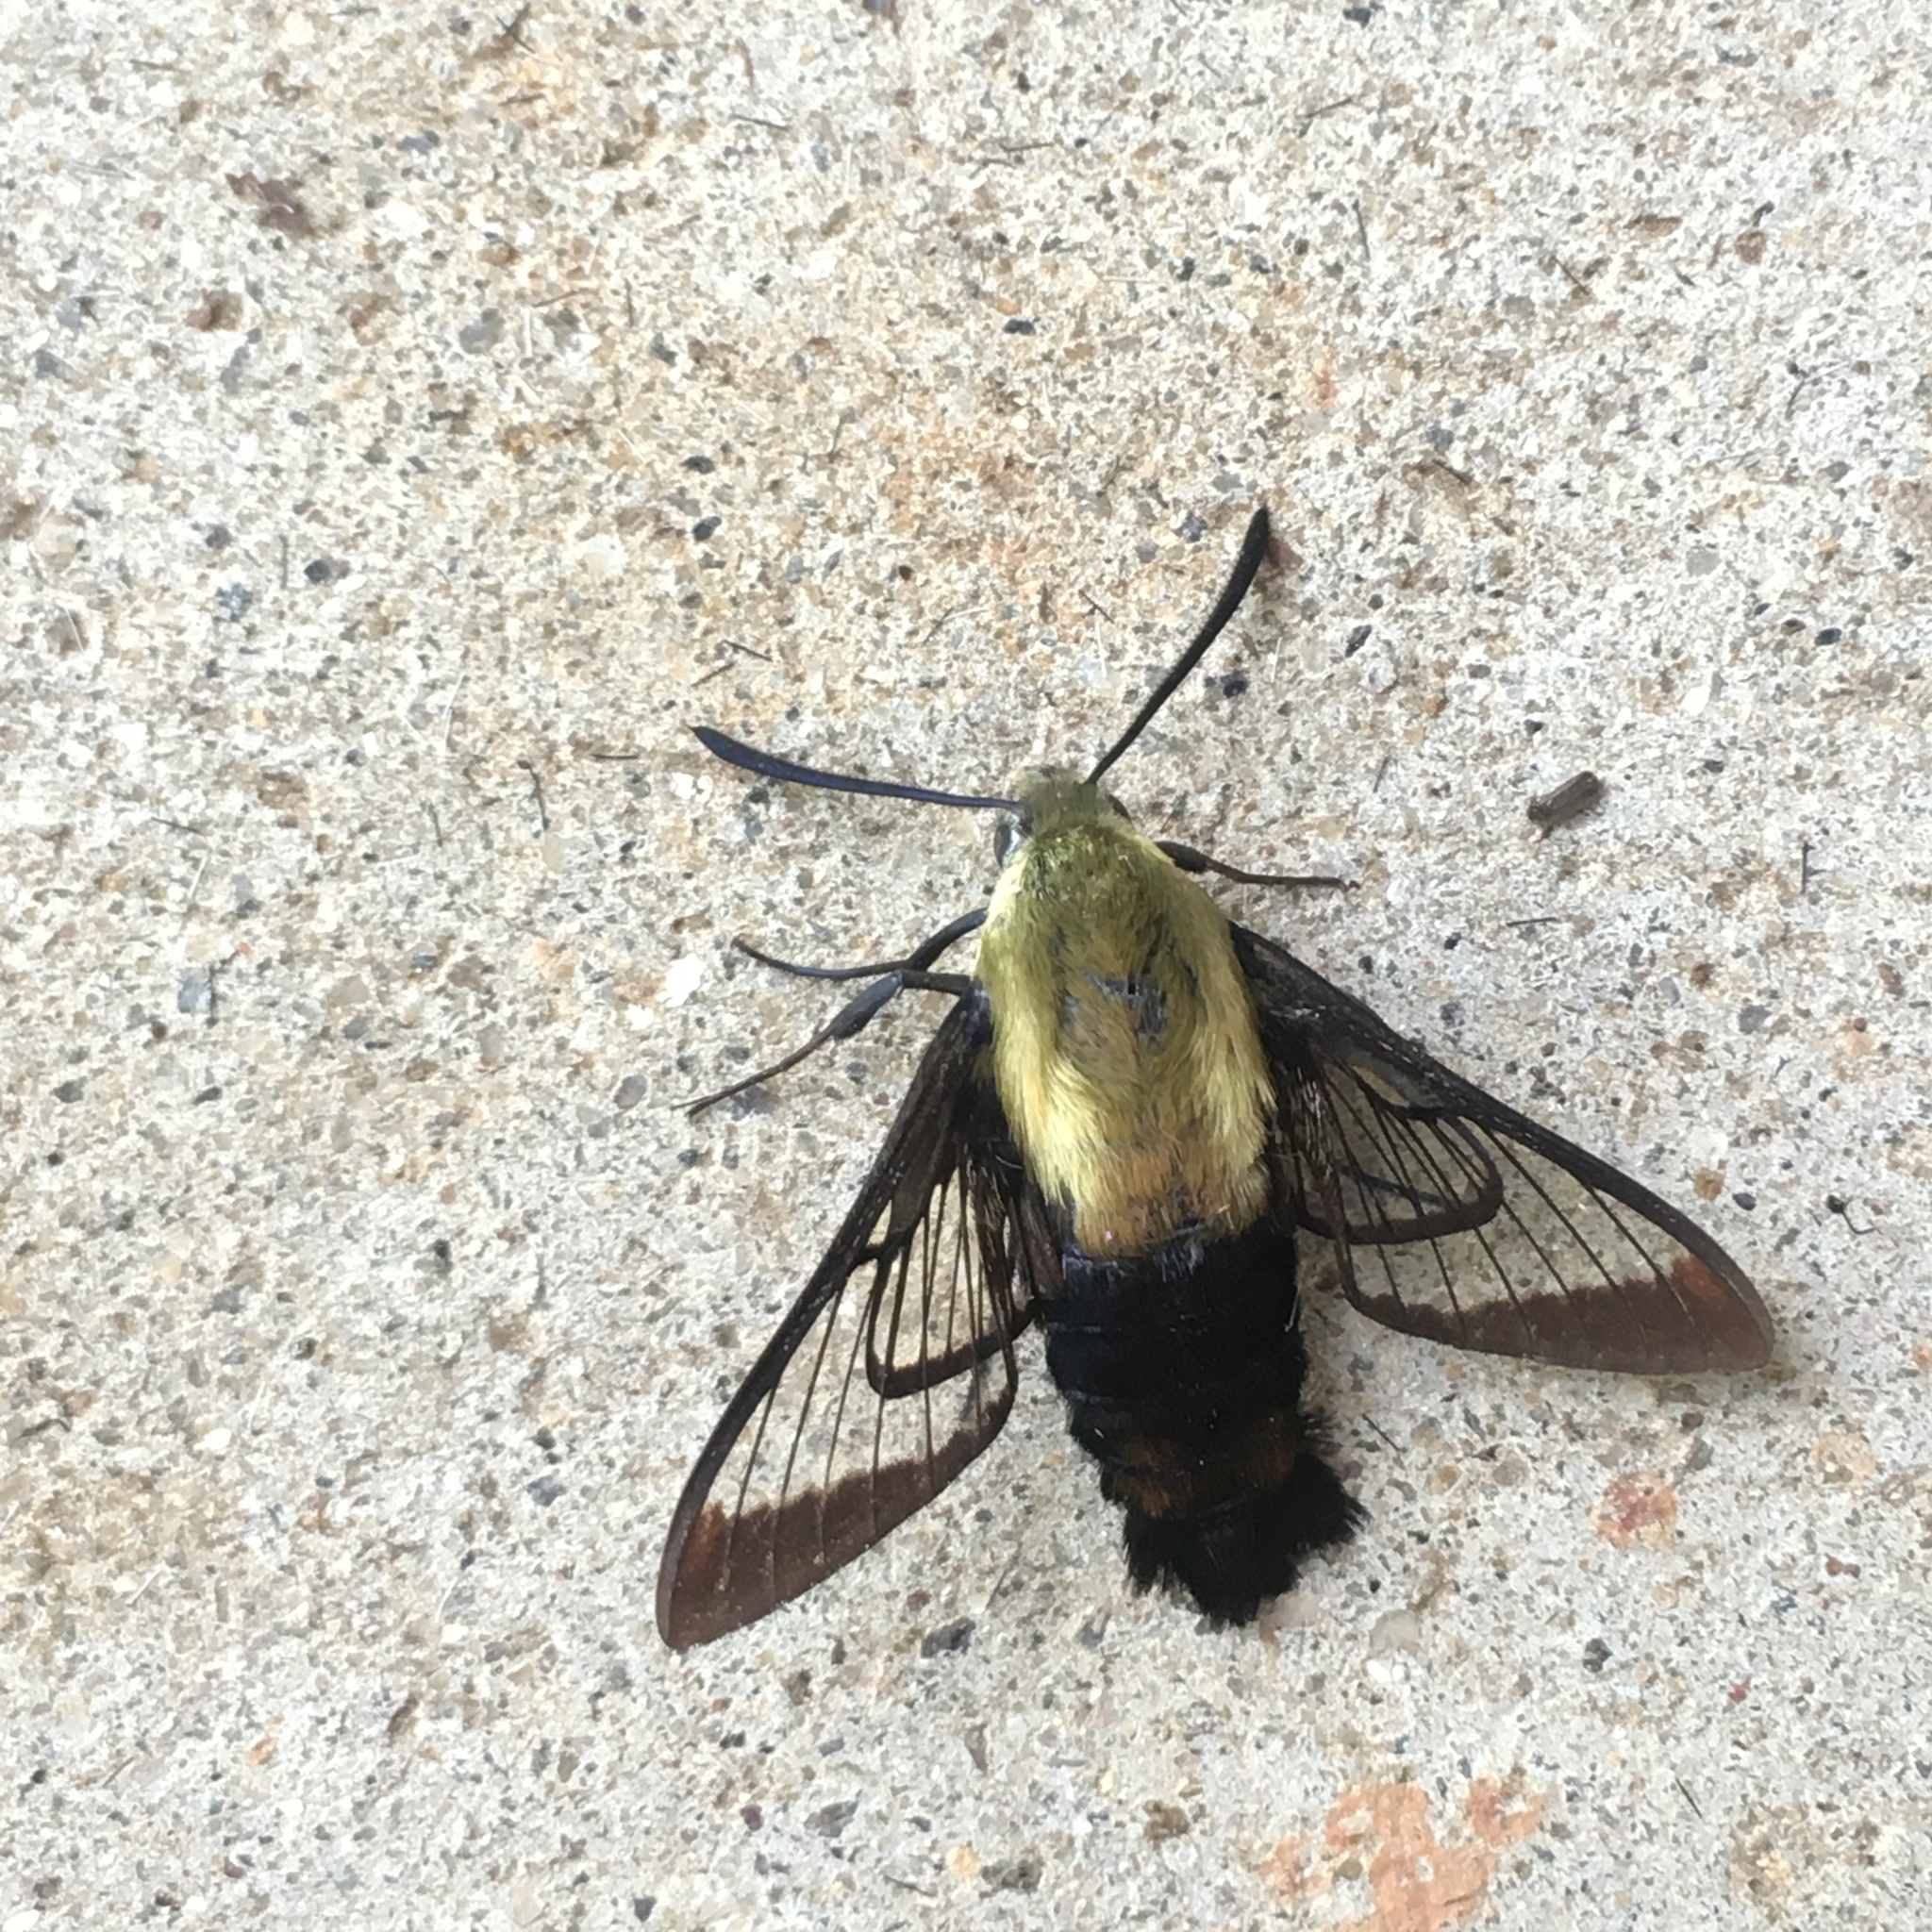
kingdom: Animalia
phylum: Arthropoda
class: Insecta
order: Lepidoptera
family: Sphingidae
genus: Hemaris
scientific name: Hemaris diffinis
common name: Bumblebee moth
